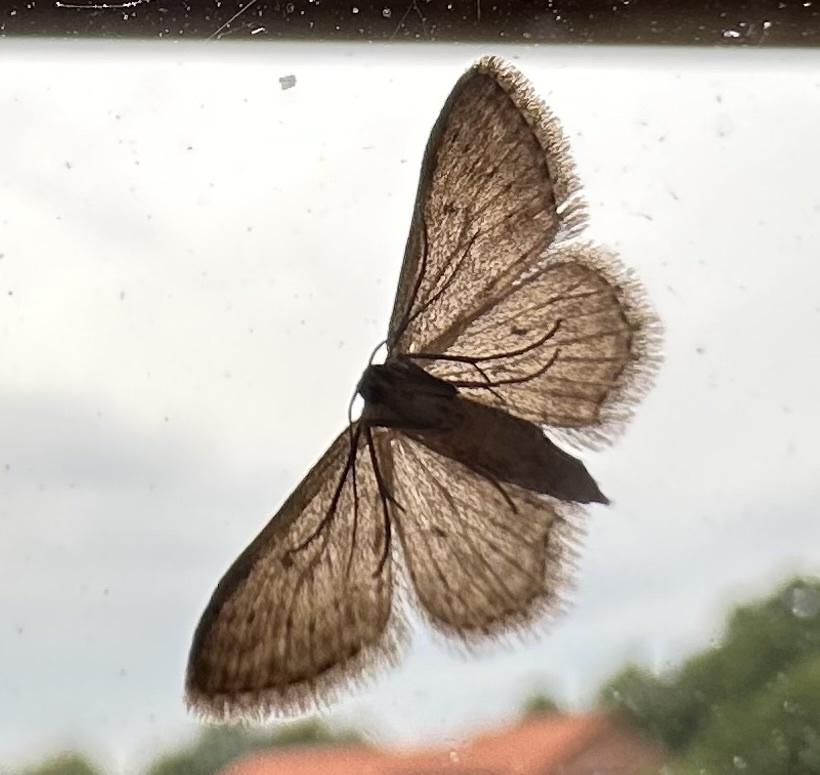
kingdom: Animalia
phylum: Arthropoda
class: Insecta
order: Lepidoptera
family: Geometridae
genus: Idaea
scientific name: Idaea seriata
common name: Small dusty wave
